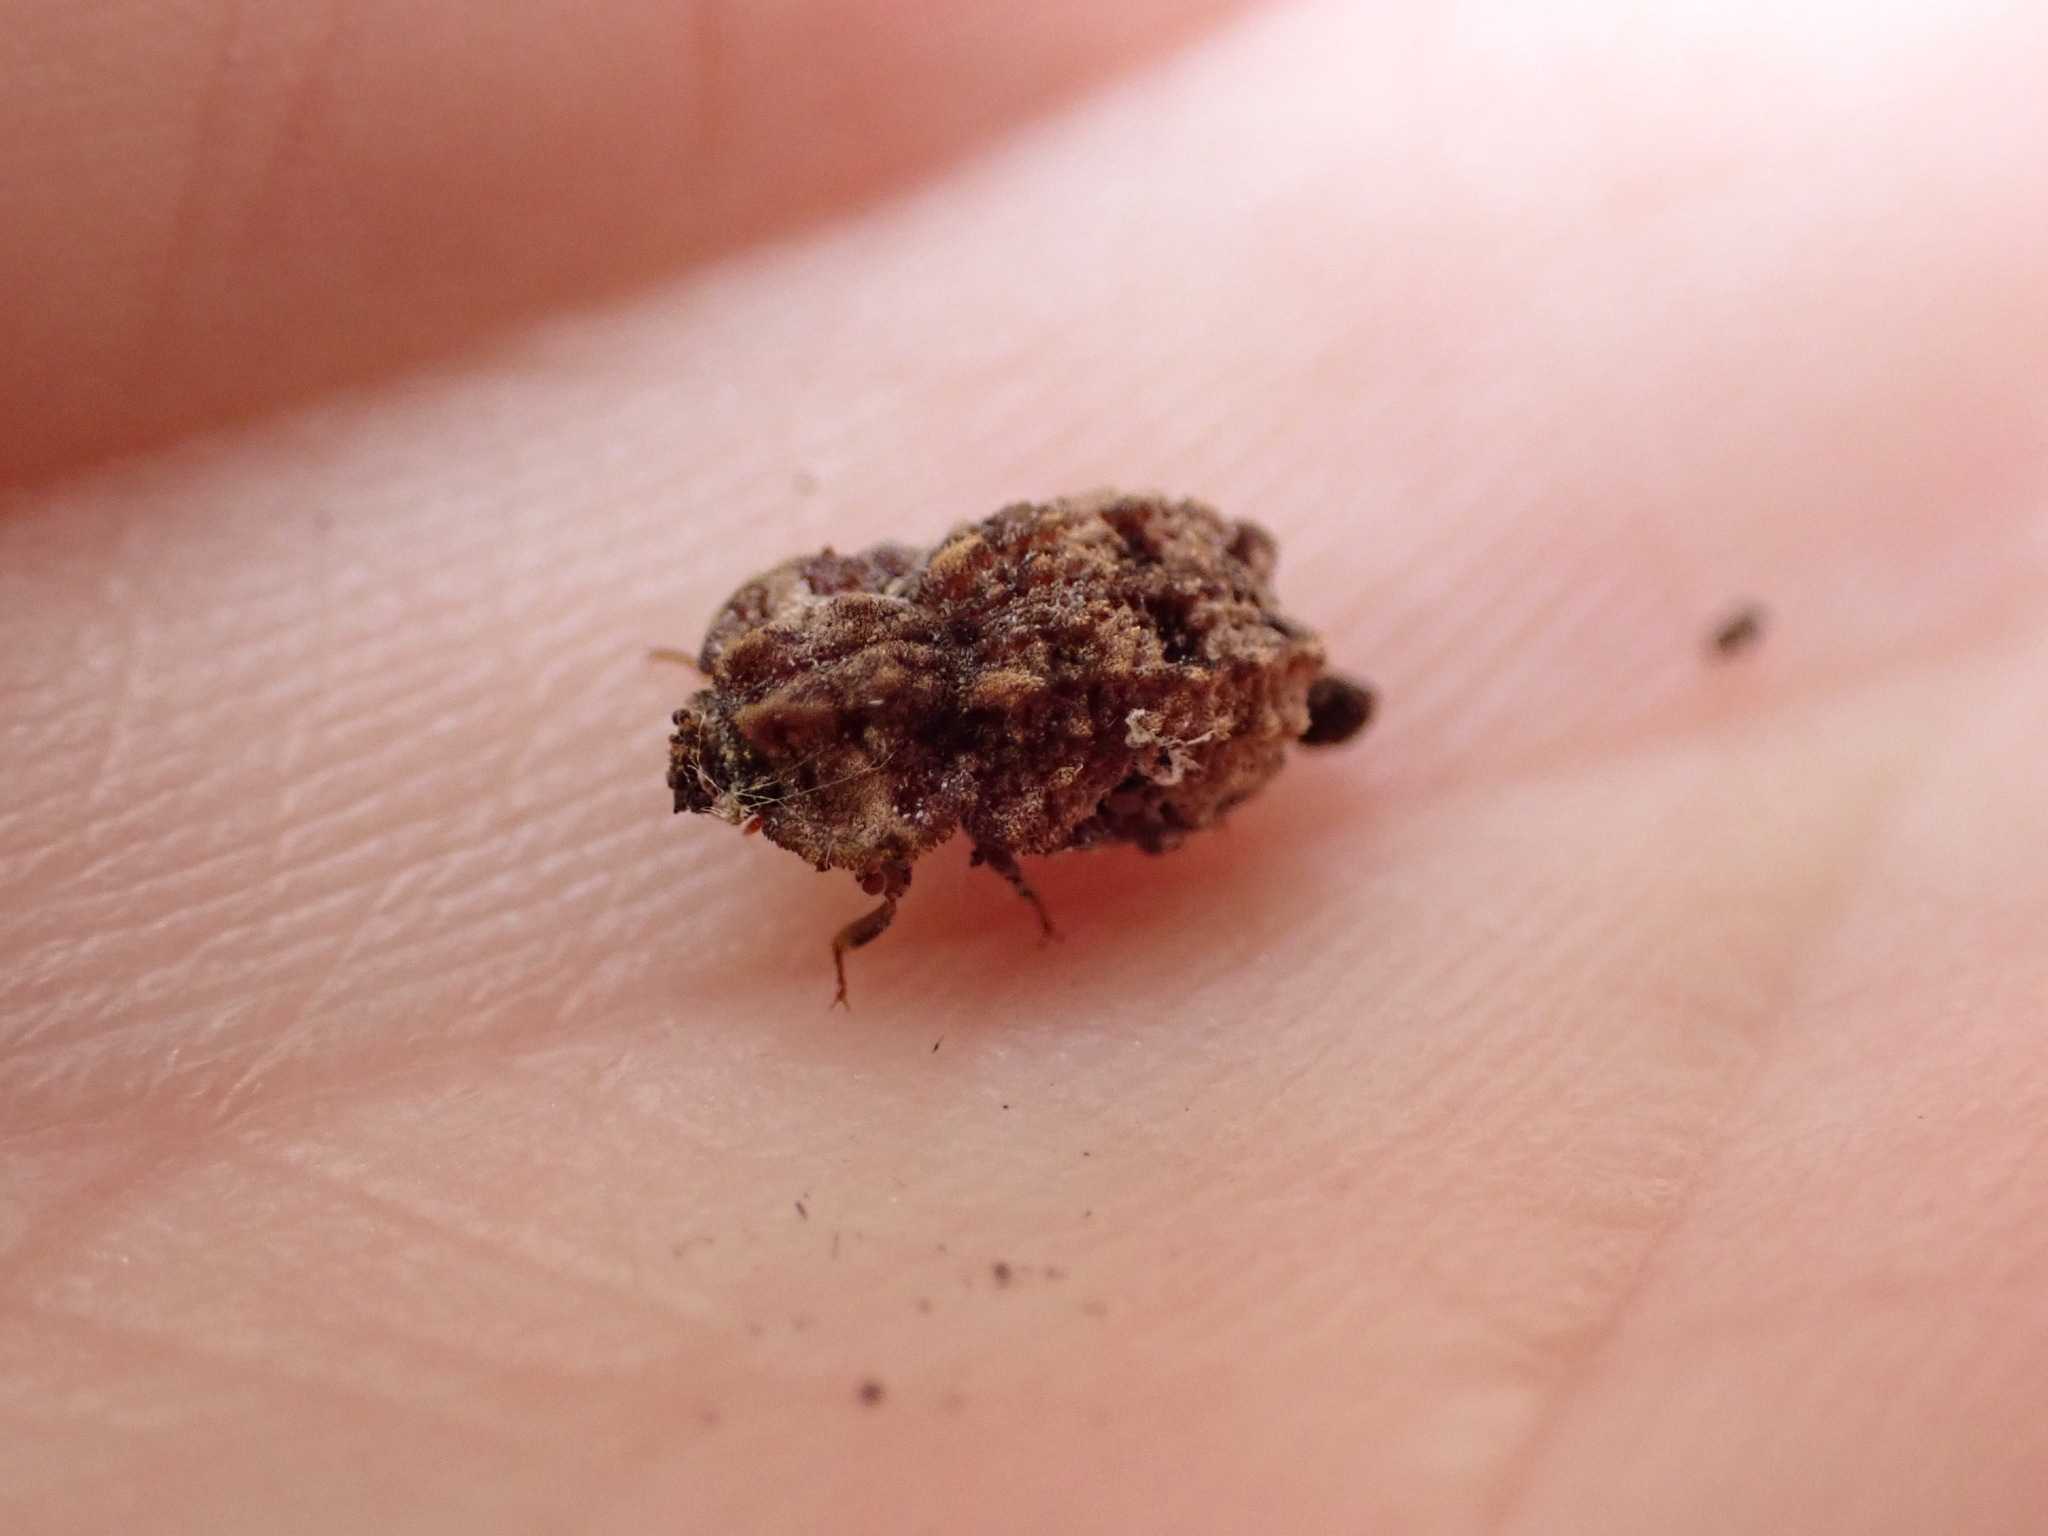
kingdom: Animalia
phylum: Arthropoda
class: Insecta
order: Coleoptera
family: Zopheridae
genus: Pristoderus
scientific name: Pristoderus
